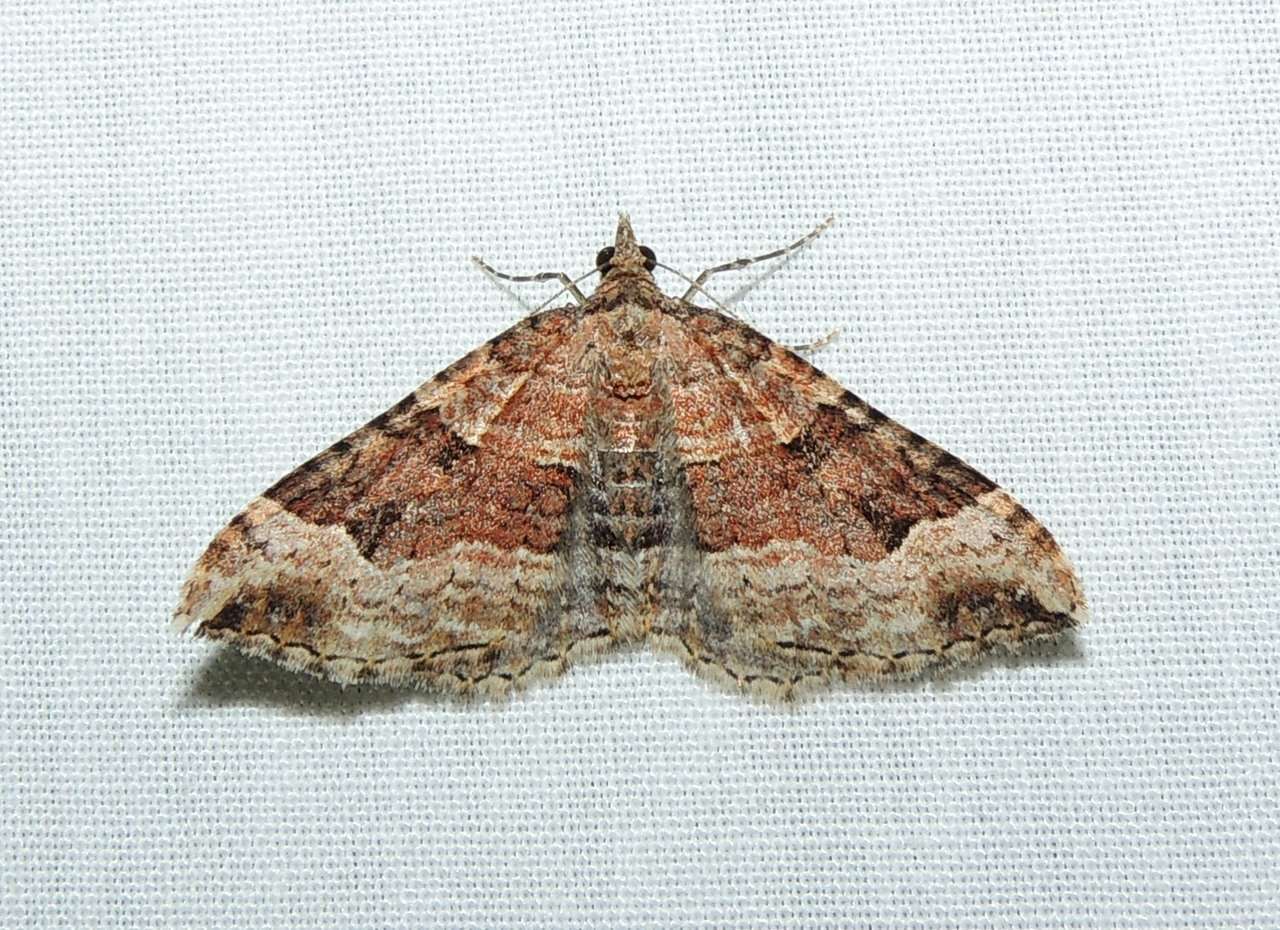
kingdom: Animalia
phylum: Arthropoda
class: Insecta
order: Lepidoptera
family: Geometridae
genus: Epyaxa
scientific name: Epyaxa subidaria
